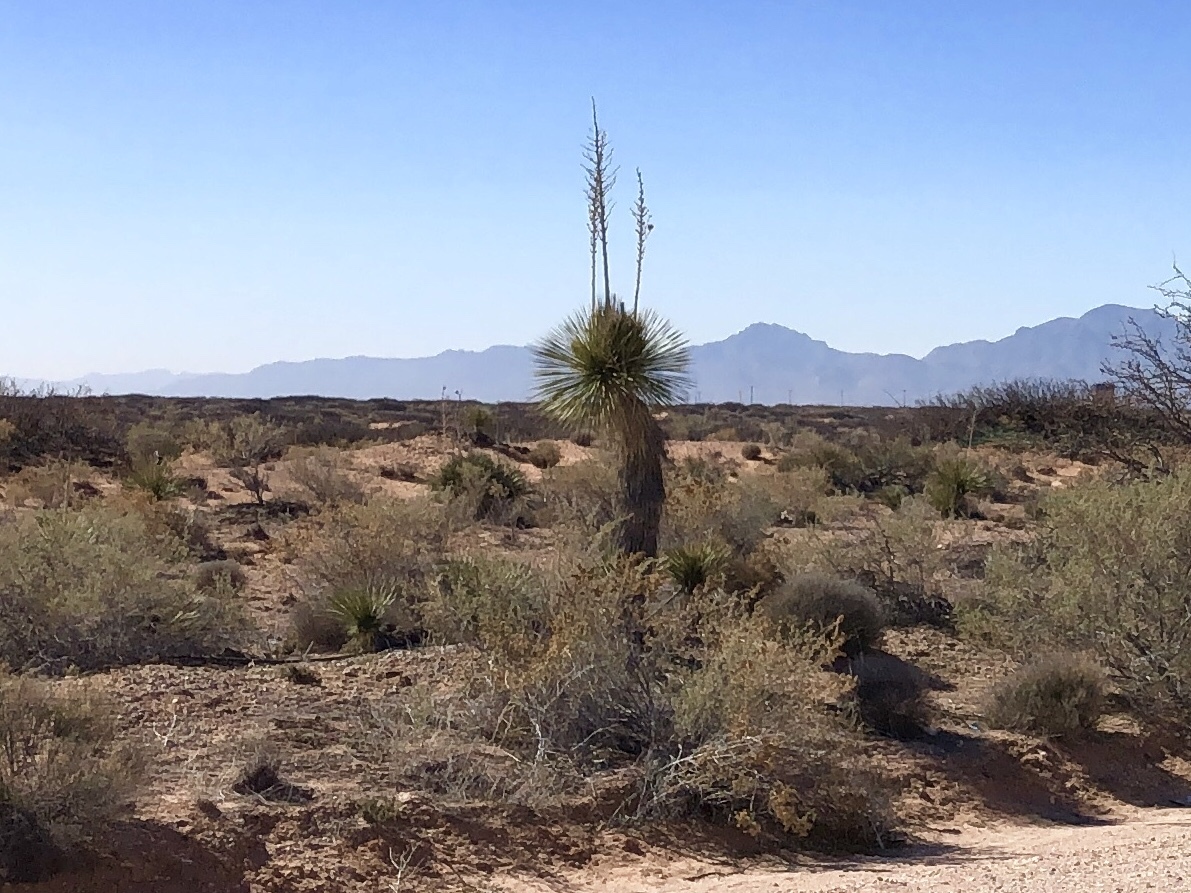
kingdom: Plantae
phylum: Tracheophyta
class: Liliopsida
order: Asparagales
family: Asparagaceae
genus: Yucca
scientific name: Yucca elata
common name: Palmella
